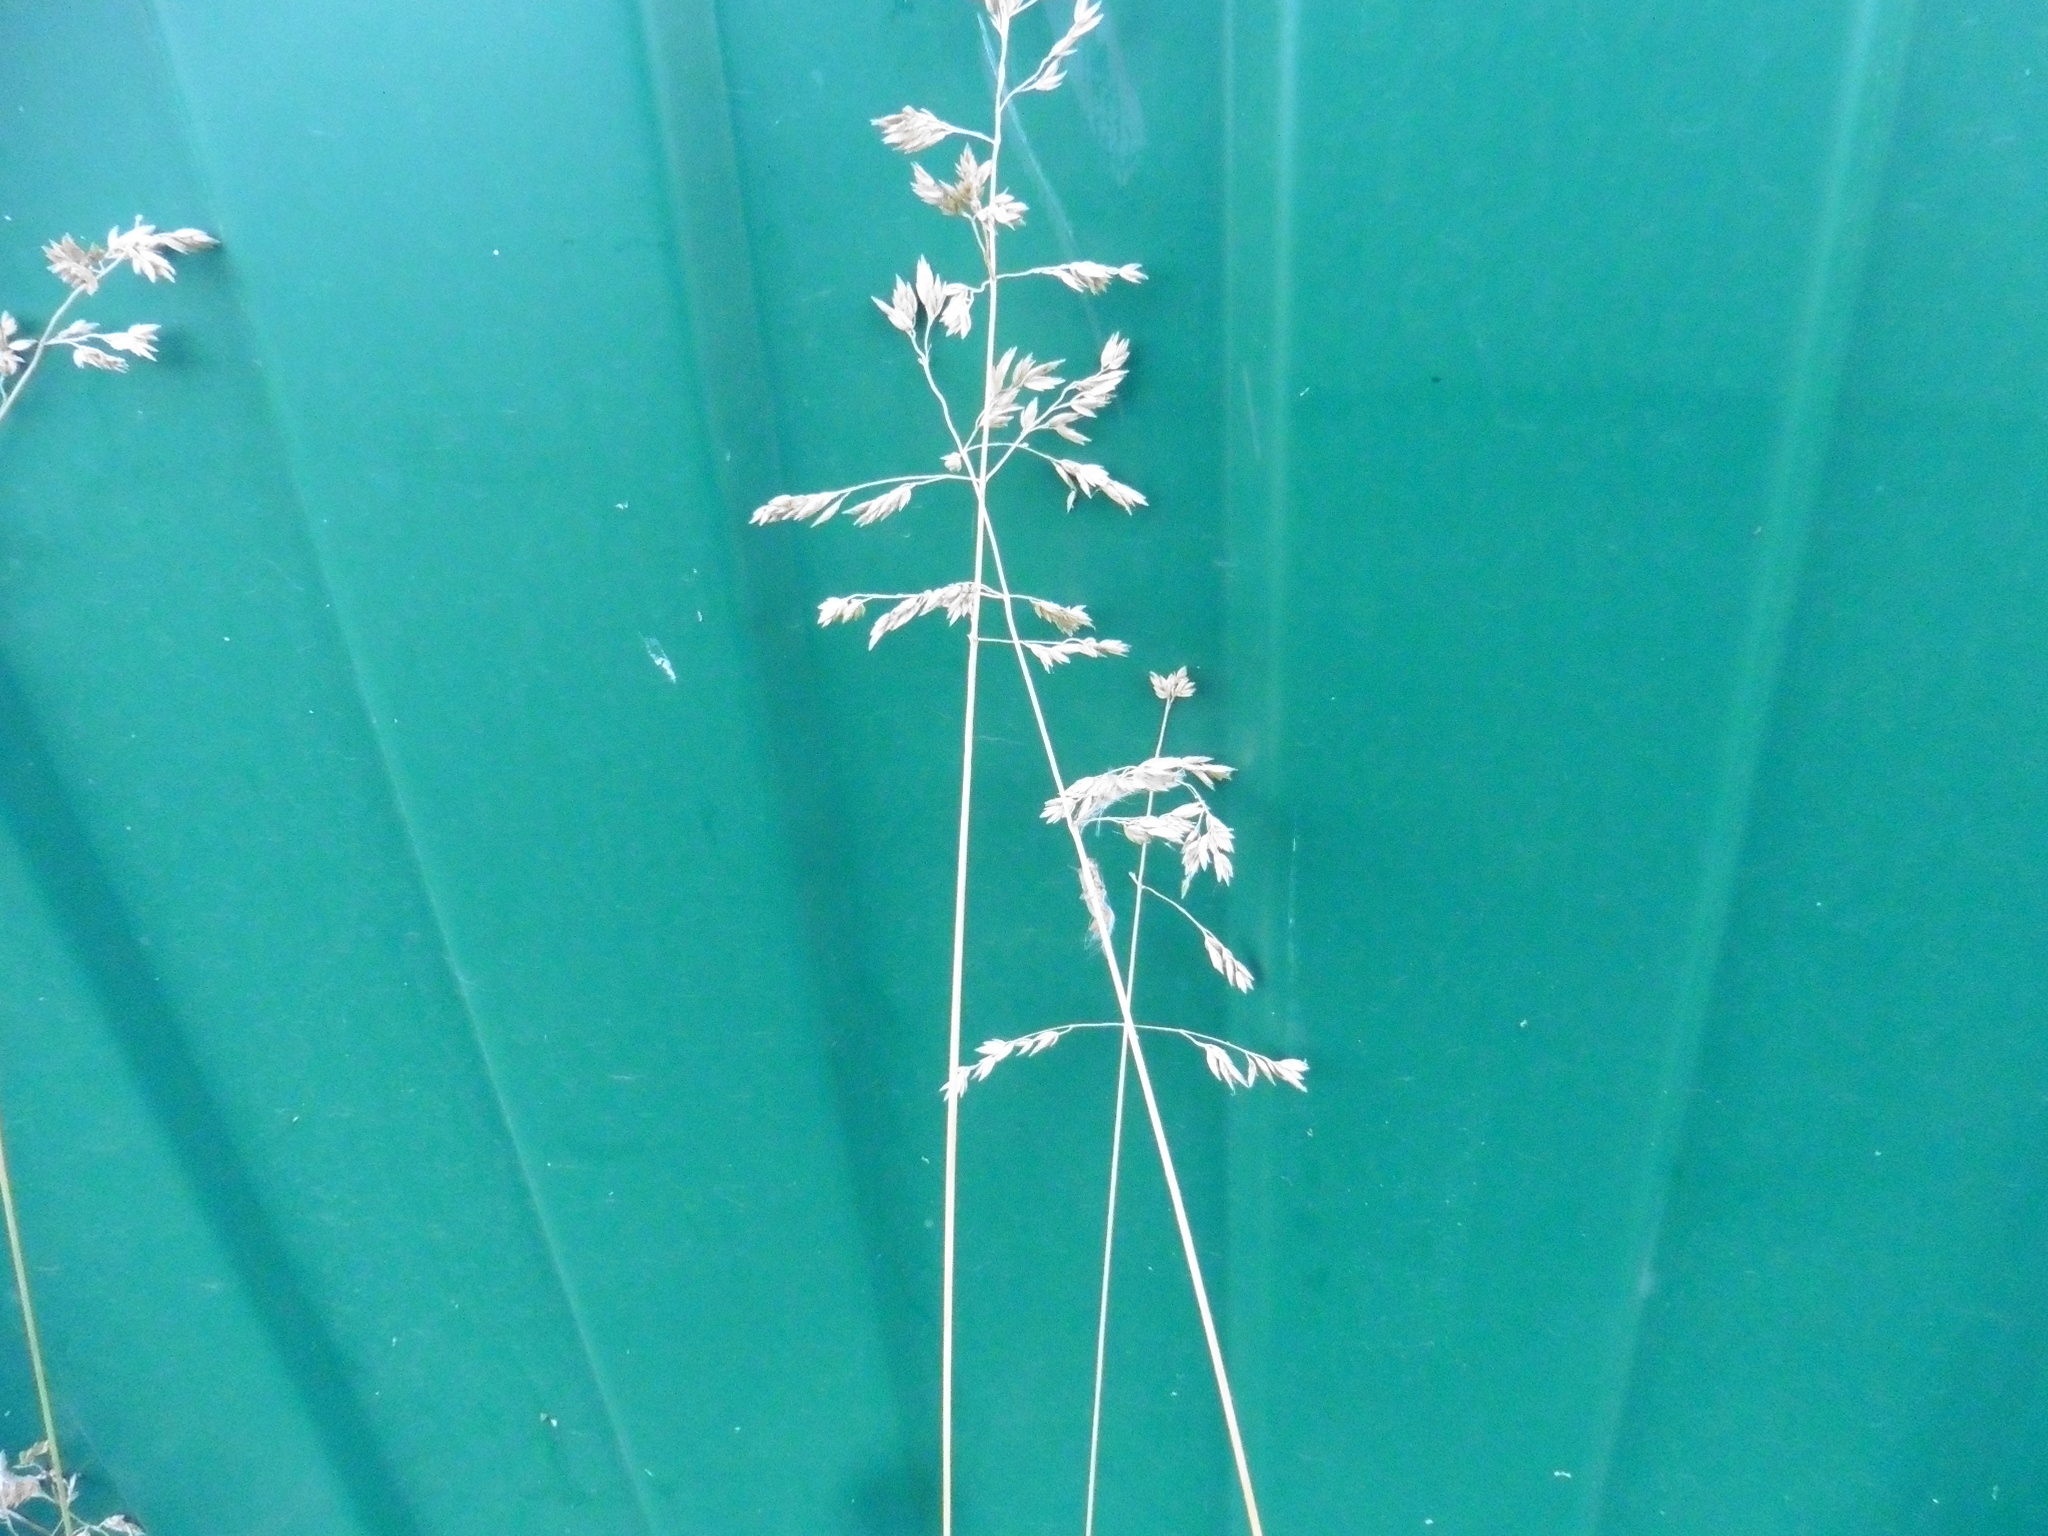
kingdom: Plantae
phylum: Tracheophyta
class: Liliopsida
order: Poales
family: Poaceae
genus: Poa
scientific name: Poa pratensis
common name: Kentucky bluegrass
